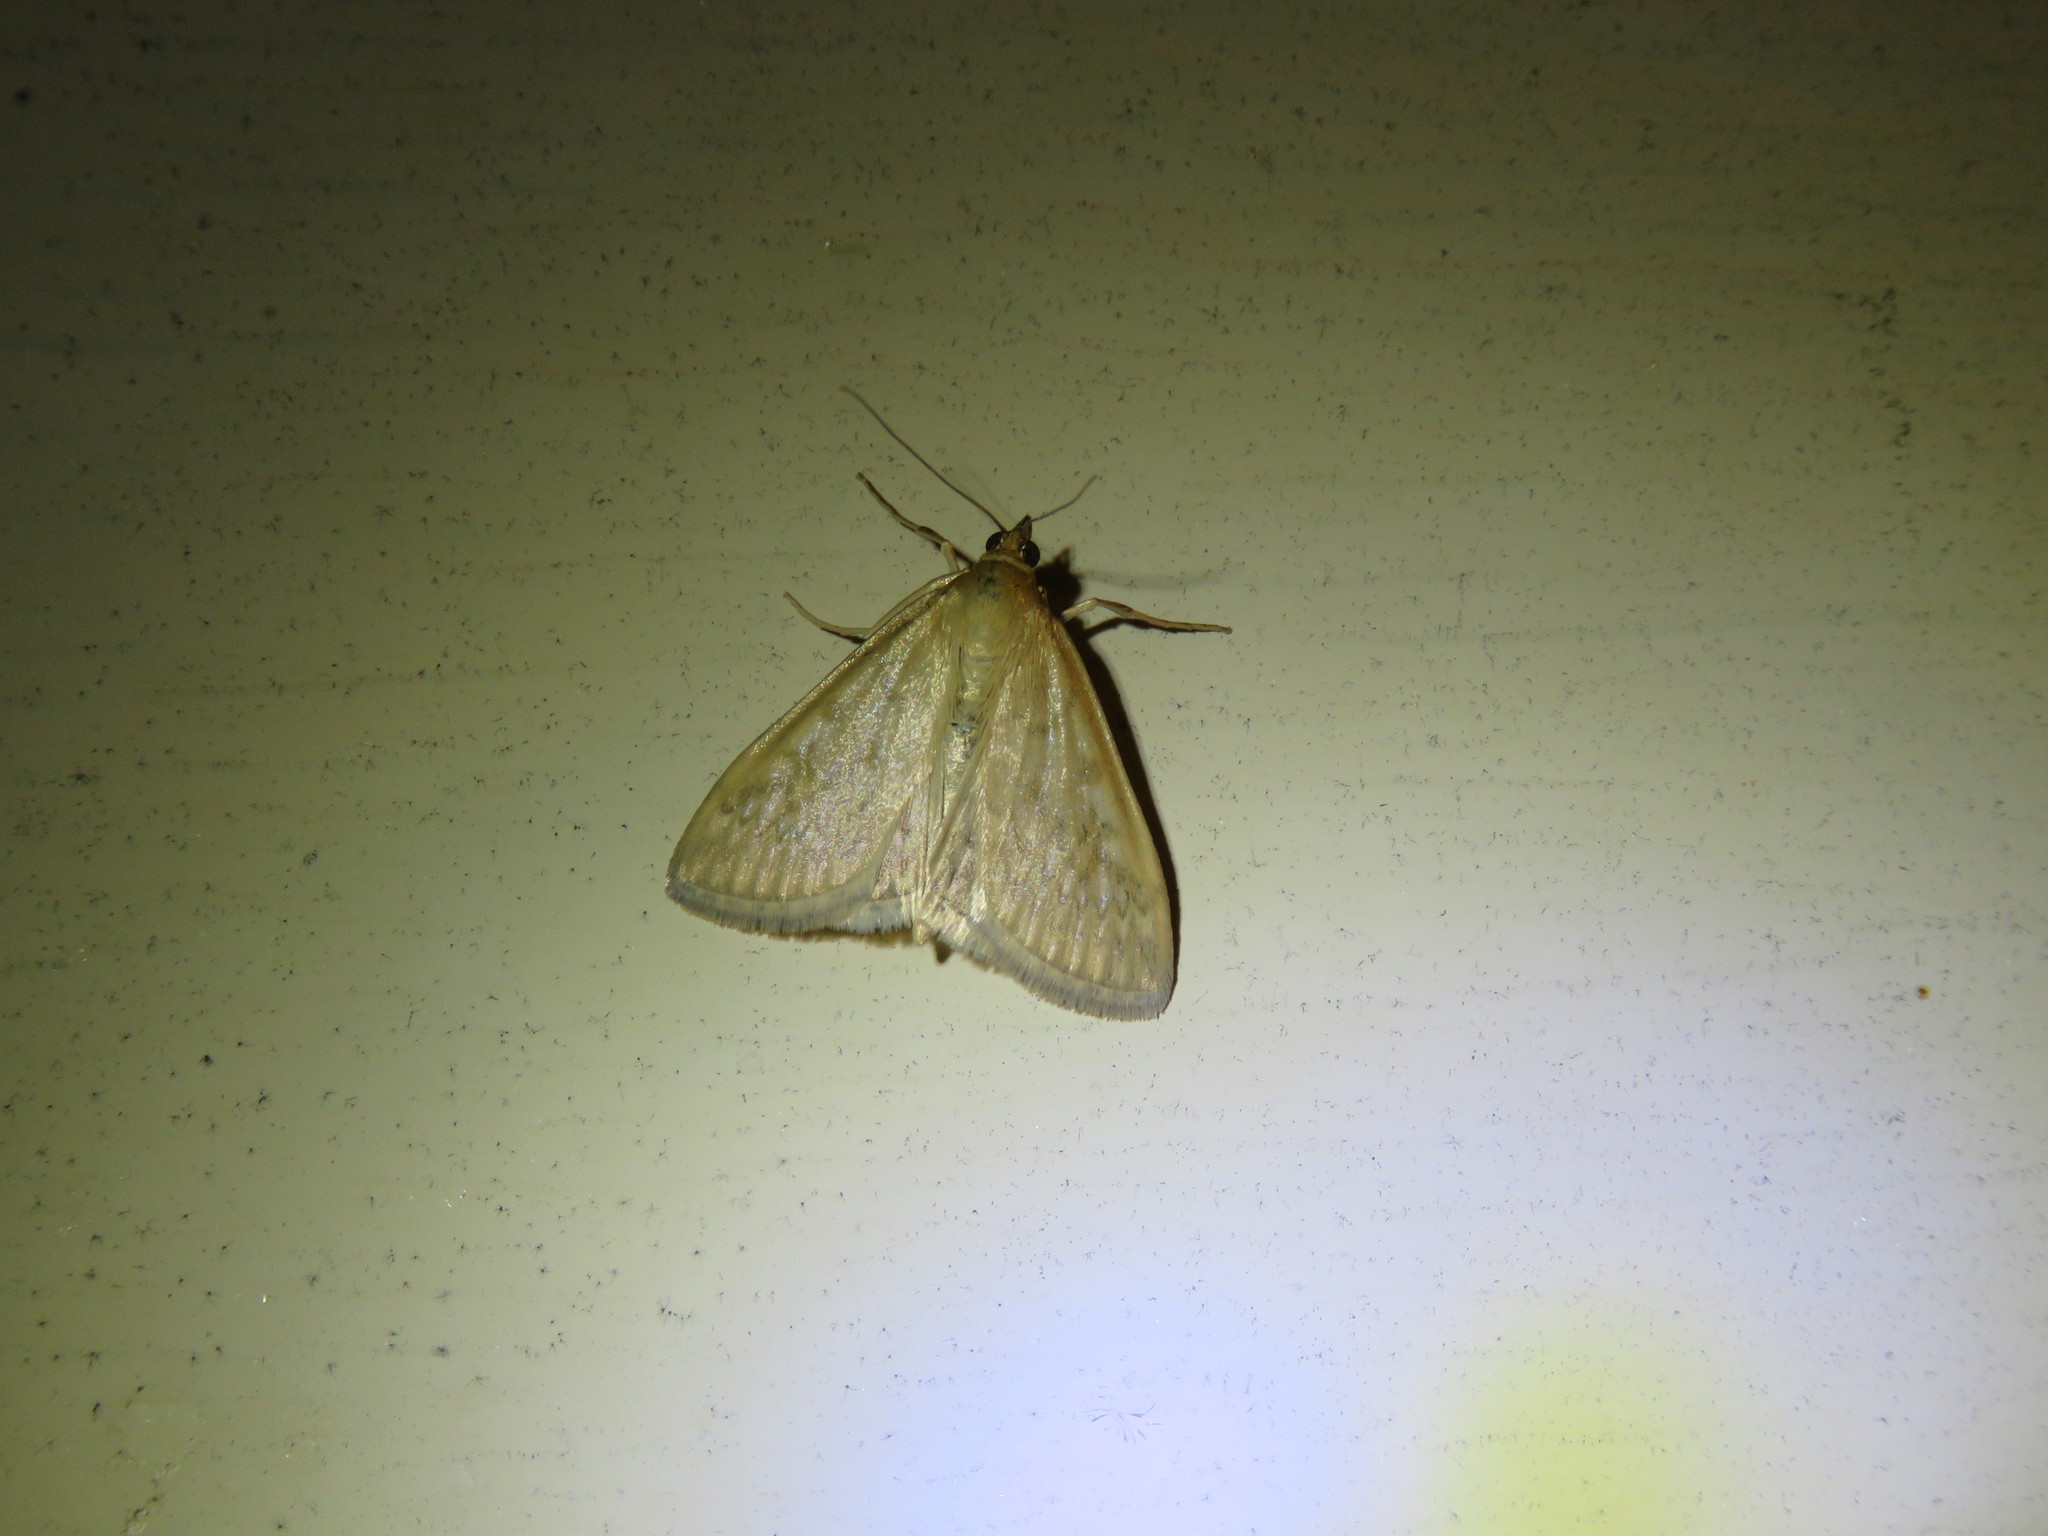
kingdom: Animalia
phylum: Arthropoda
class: Insecta
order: Lepidoptera
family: Crambidae
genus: Sitochroa
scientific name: Sitochroa chortalis
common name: Dimorphic sitochroa moth
